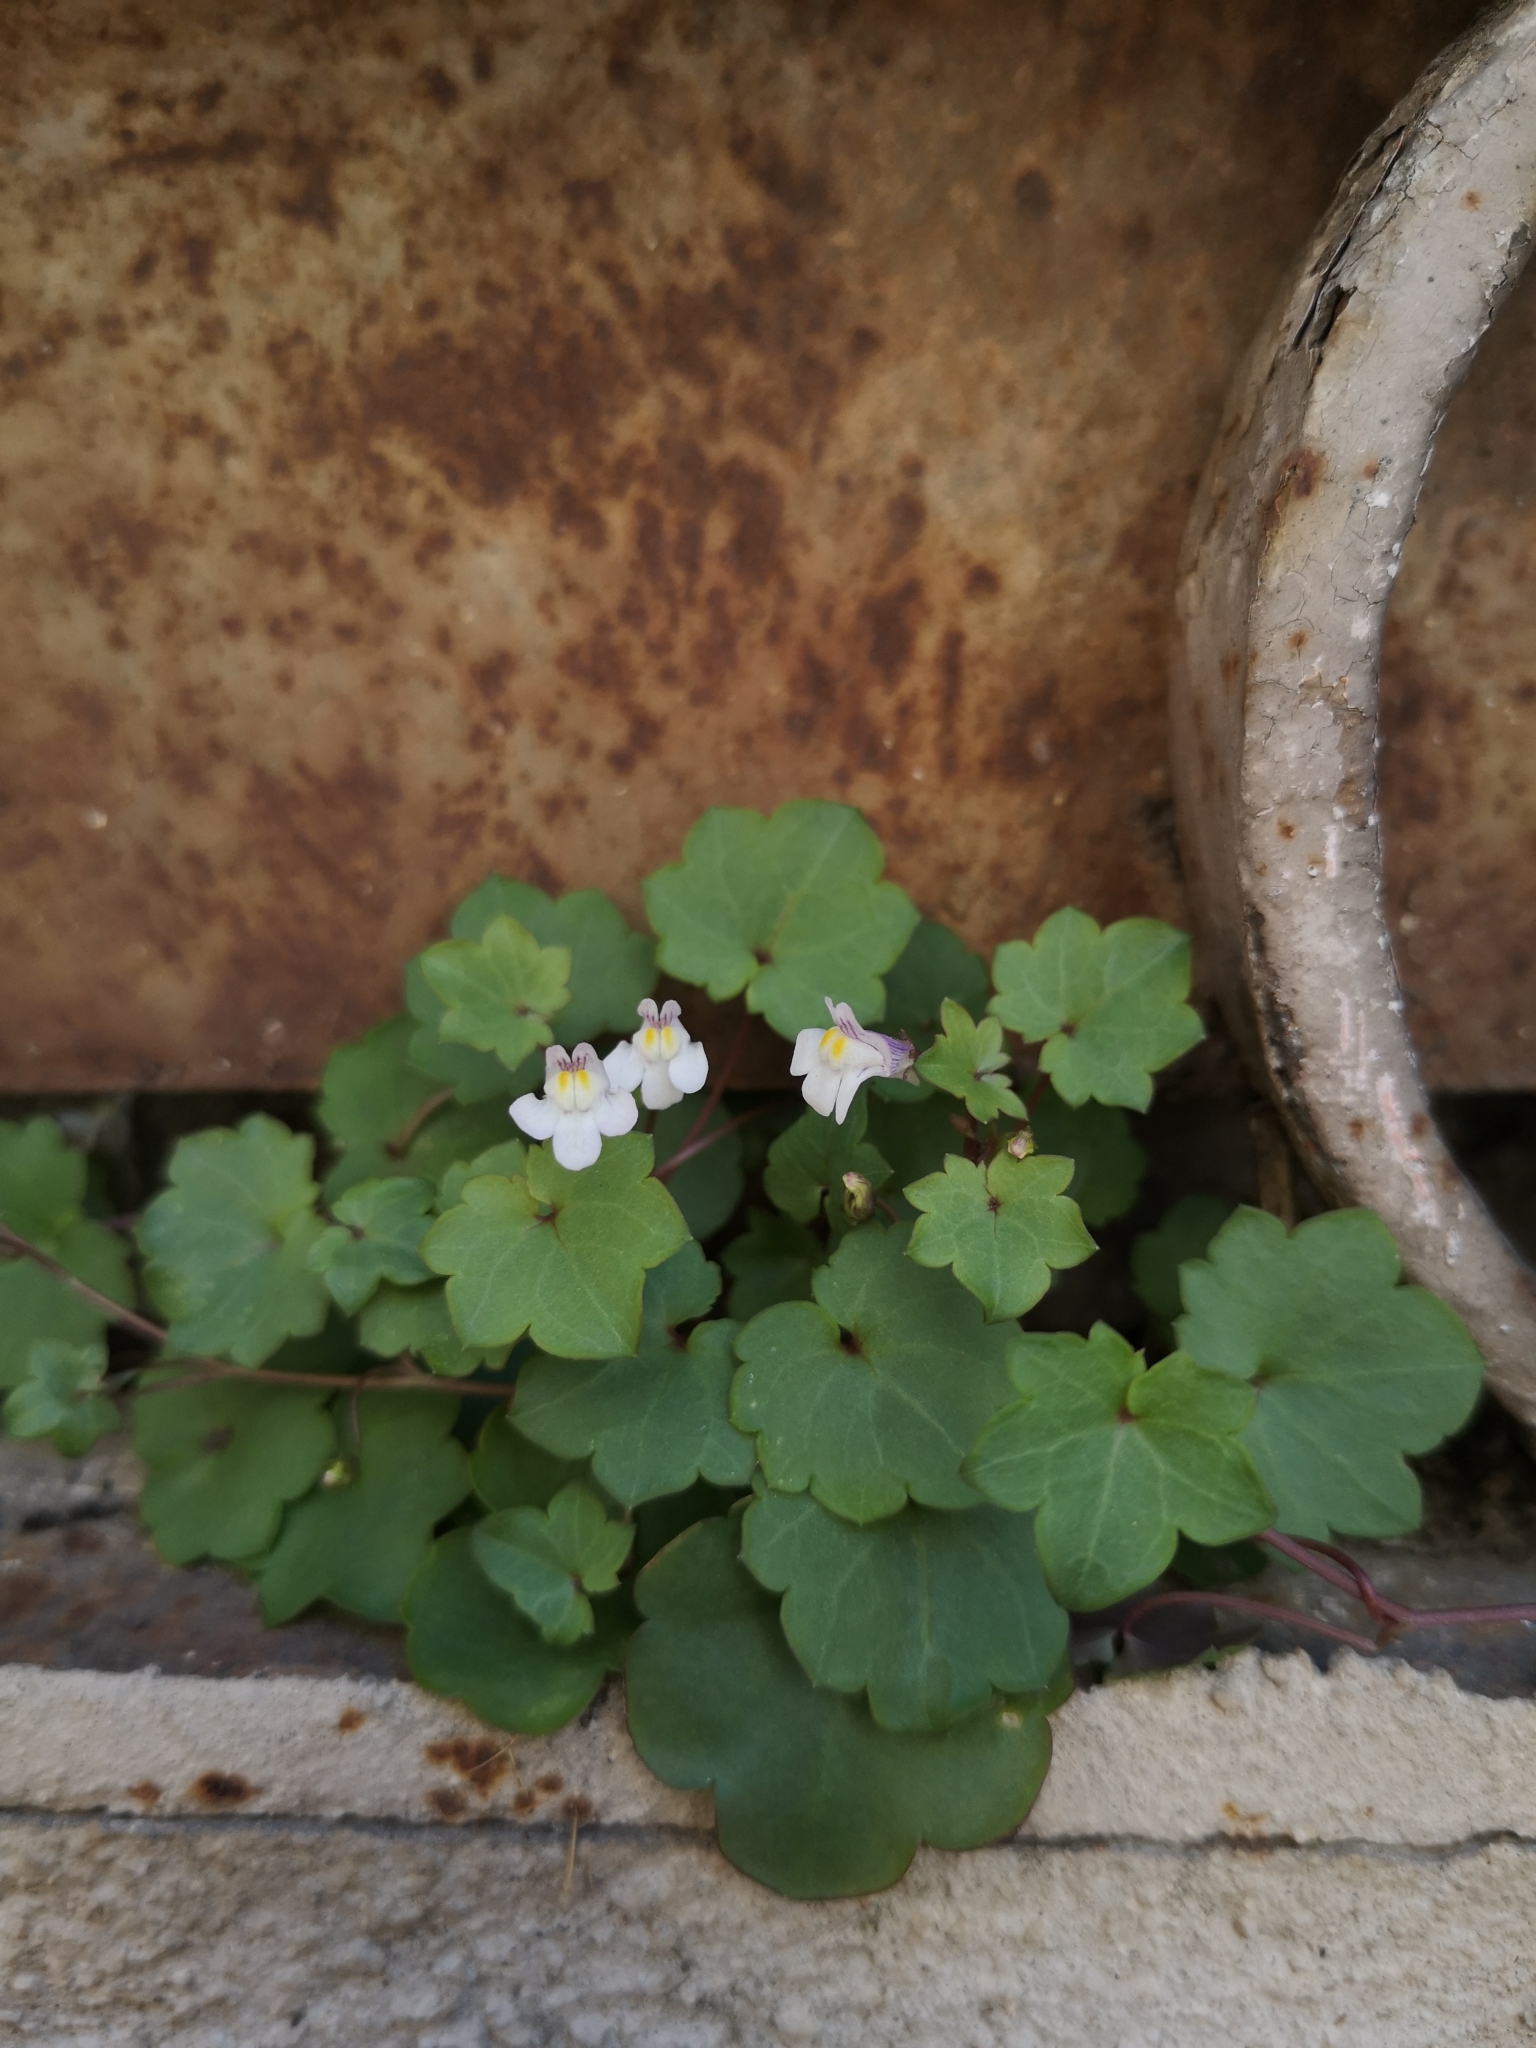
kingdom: Plantae
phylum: Tracheophyta
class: Magnoliopsida
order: Lamiales
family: Plantaginaceae
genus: Cymbalaria
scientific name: Cymbalaria muralis
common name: Ivy-leaved toadflax
